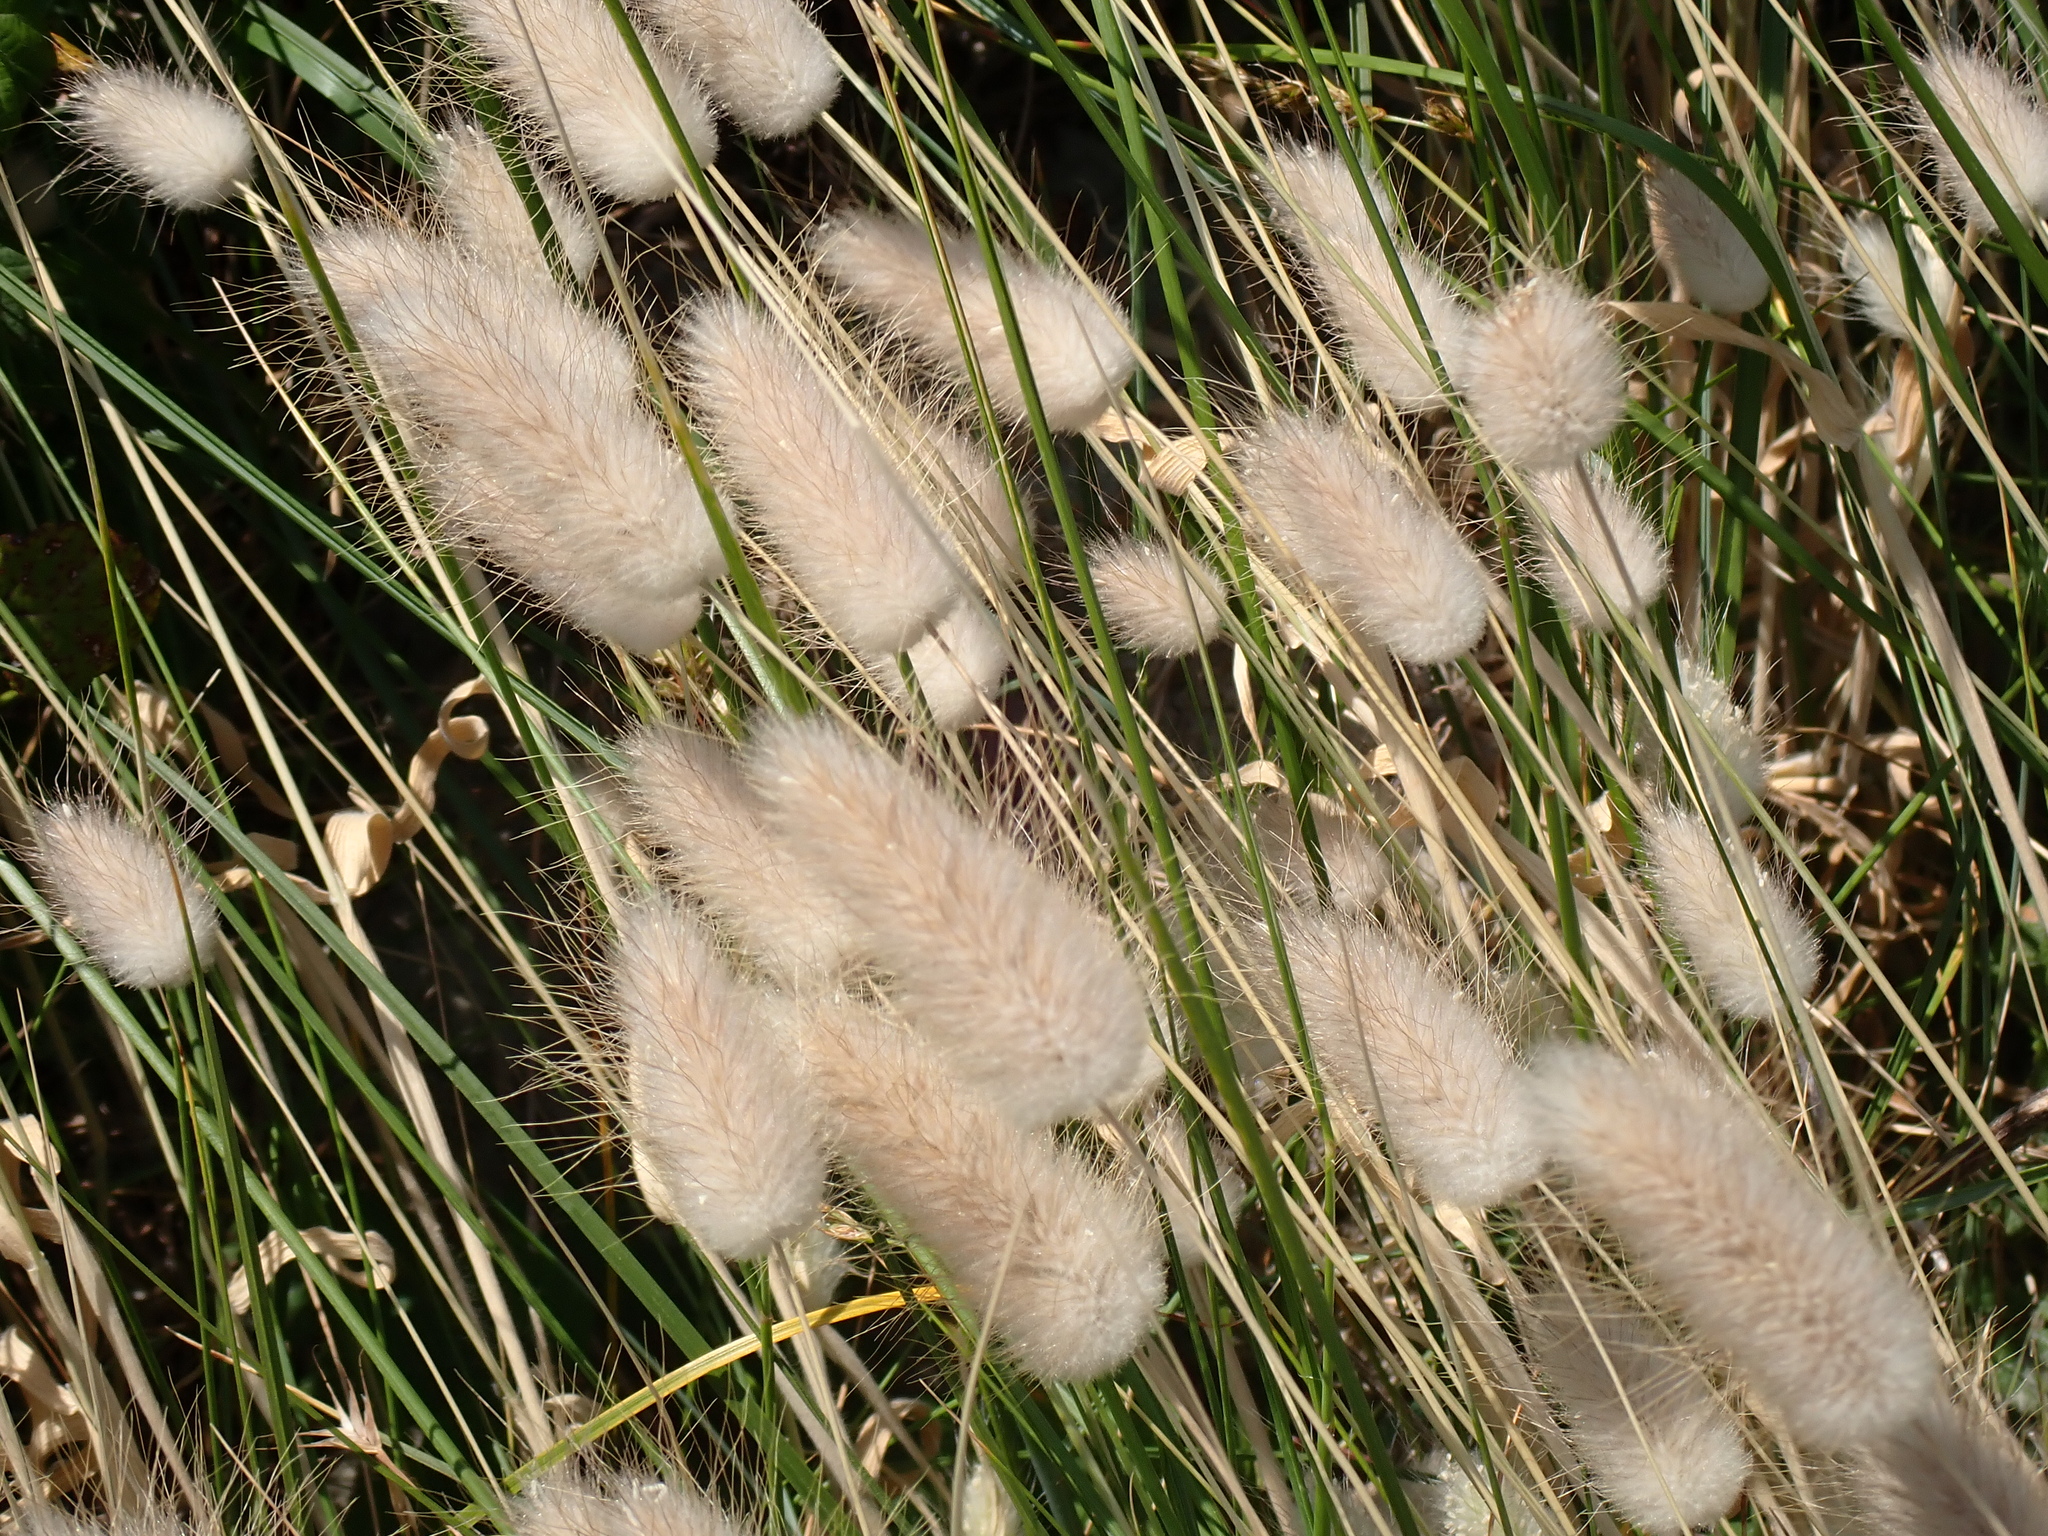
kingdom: Plantae
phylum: Tracheophyta
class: Liliopsida
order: Poales
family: Poaceae
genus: Lagurus
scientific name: Lagurus ovatus
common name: Hare's-tail
